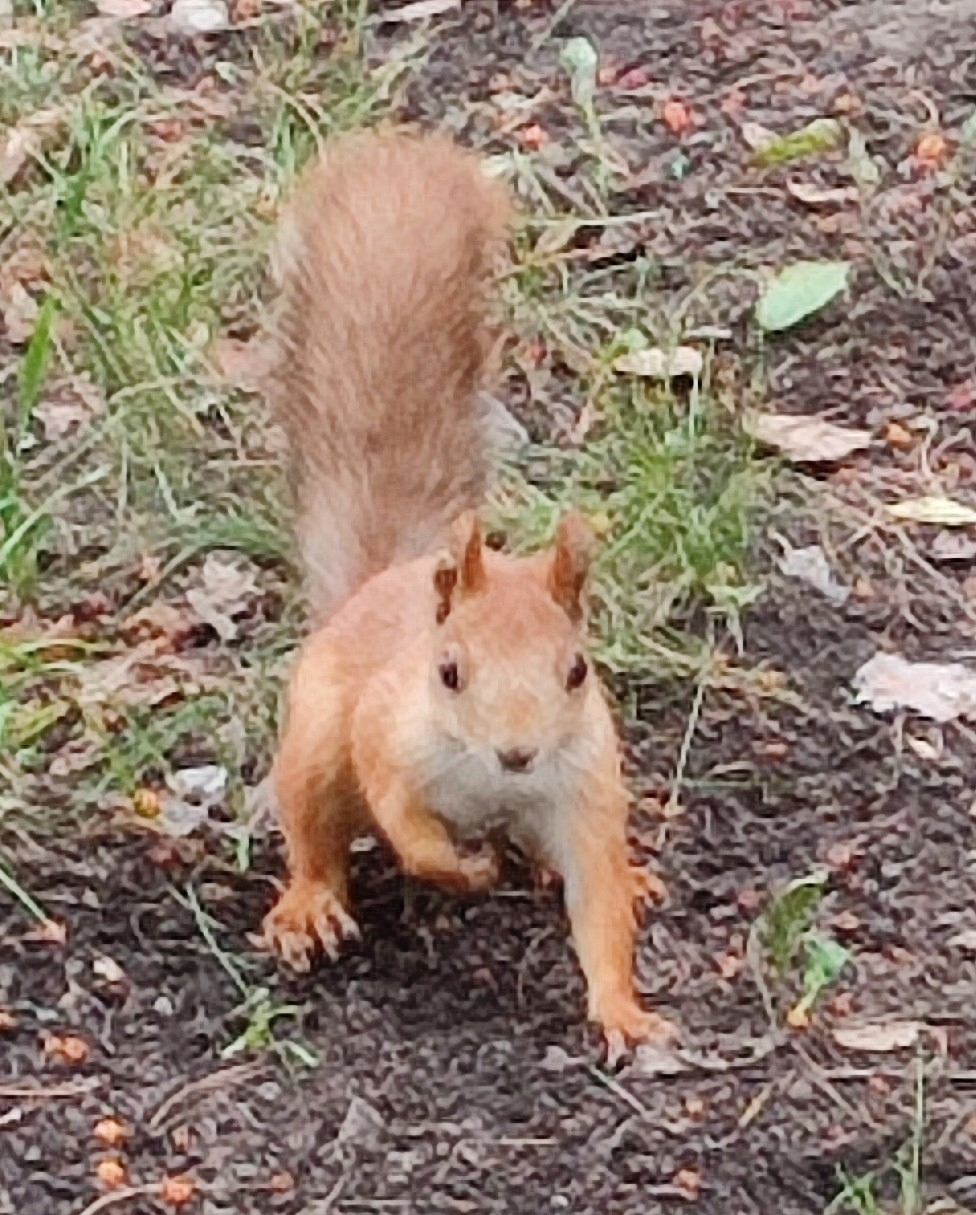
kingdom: Animalia
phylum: Chordata
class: Mammalia
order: Rodentia
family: Sciuridae
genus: Sciurus
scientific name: Sciurus vulgaris
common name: Eurasian red squirrel
